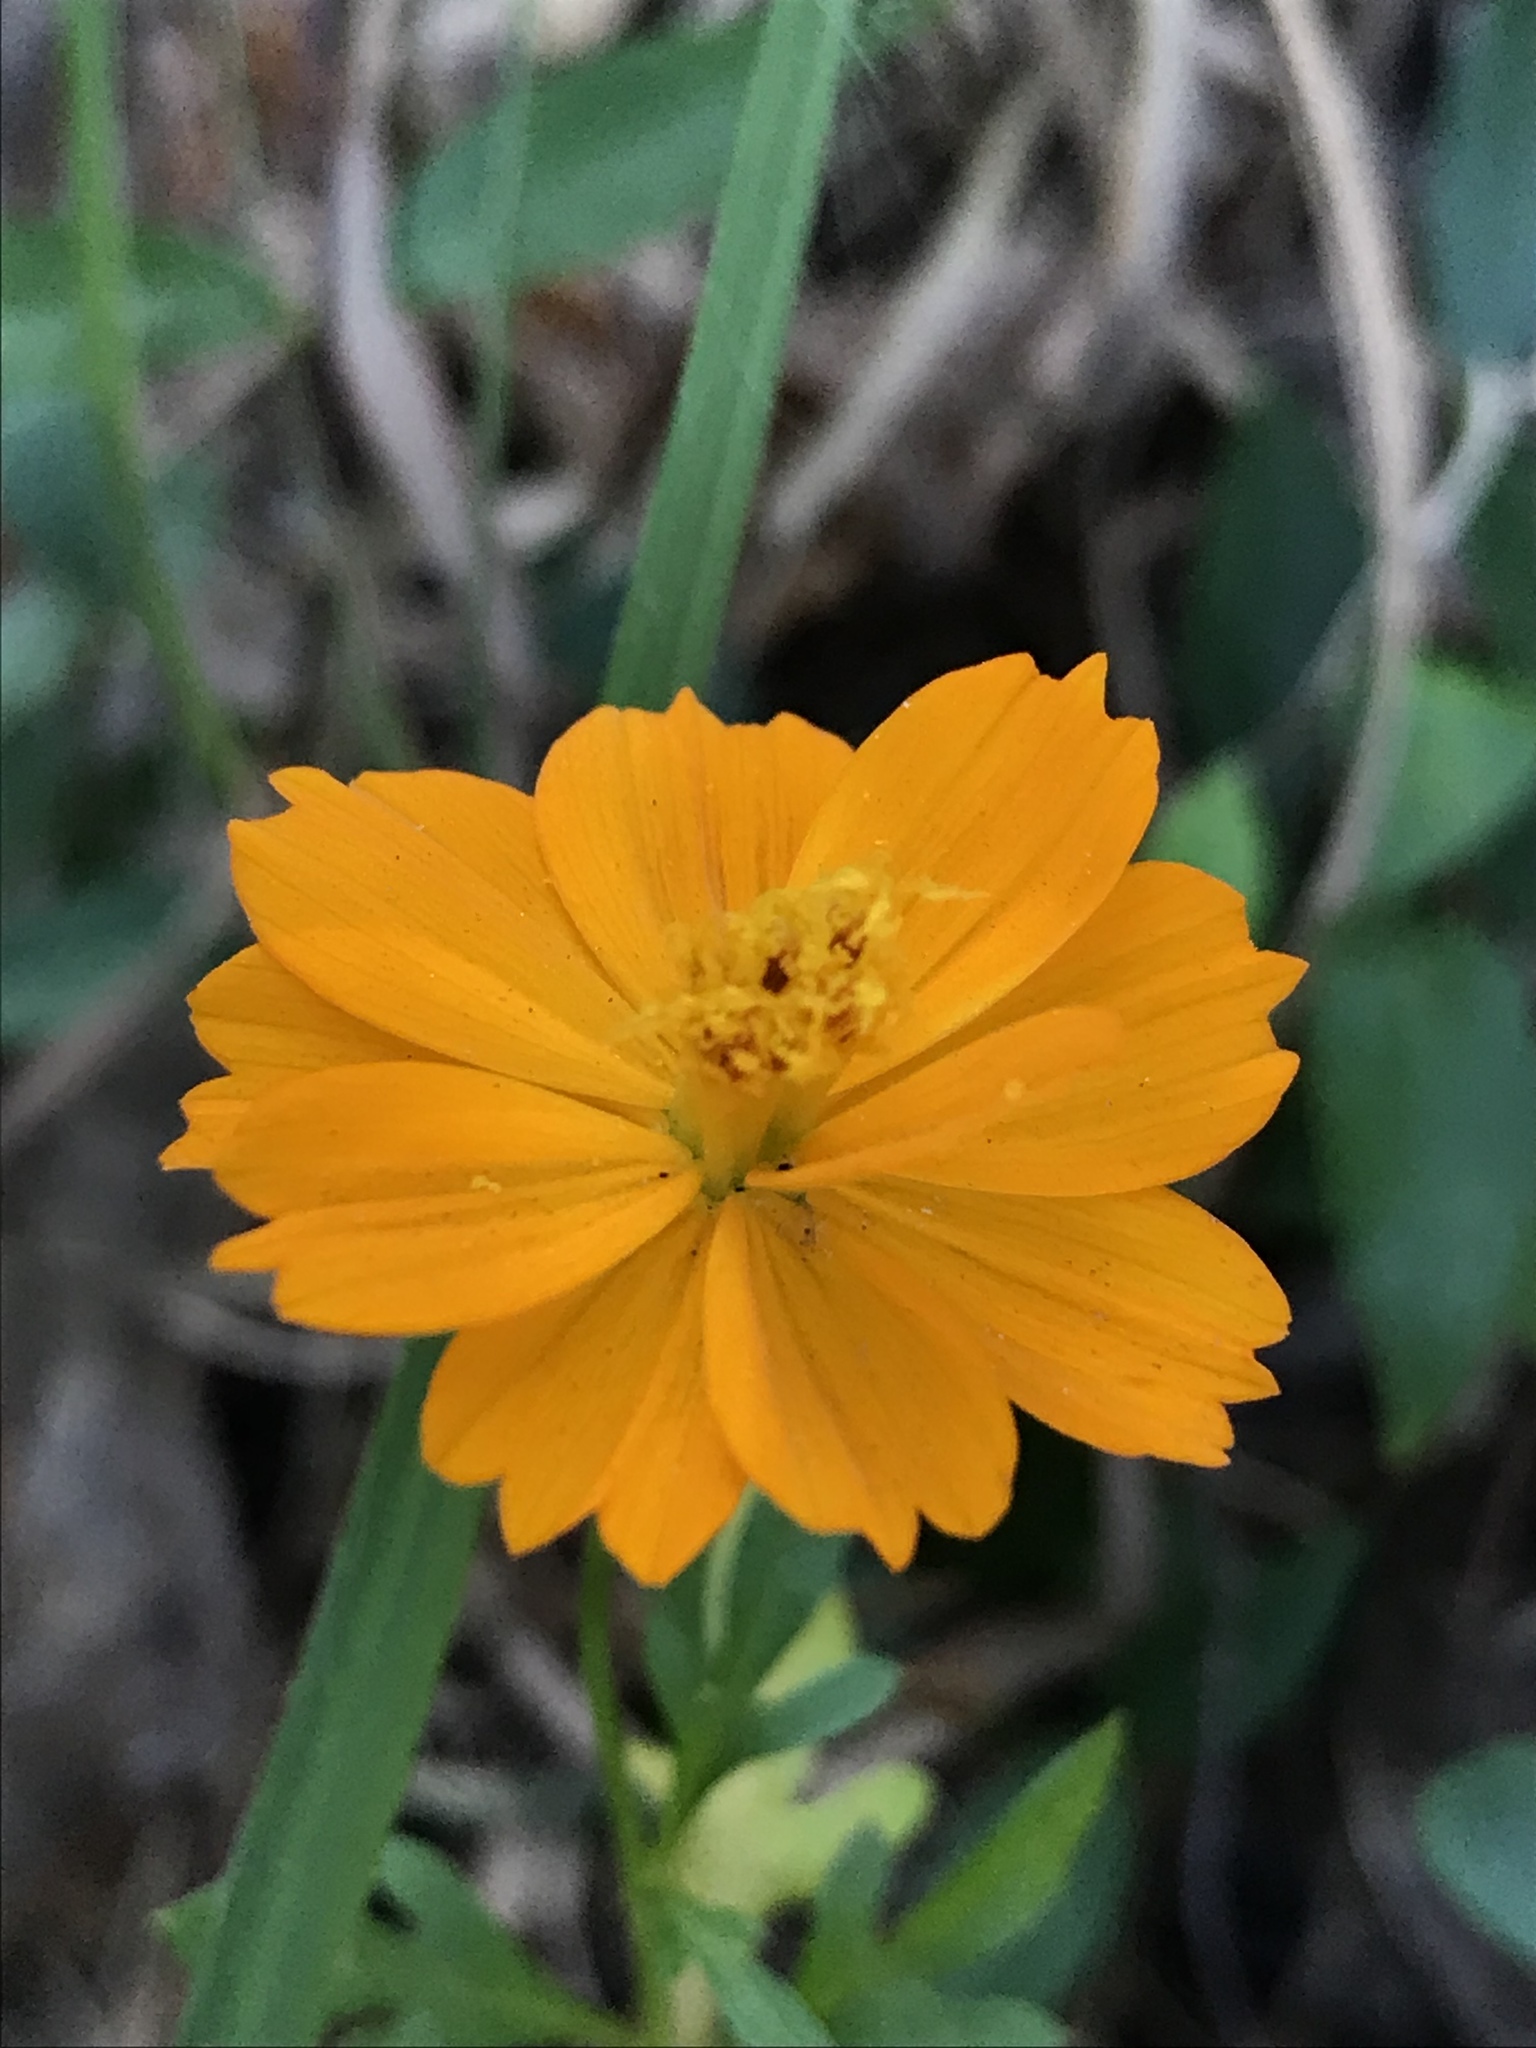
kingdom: Plantae
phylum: Tracheophyta
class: Magnoliopsida
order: Asterales
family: Asteraceae
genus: Cosmos
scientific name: Cosmos sulphureus
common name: Sulphur cosmos
